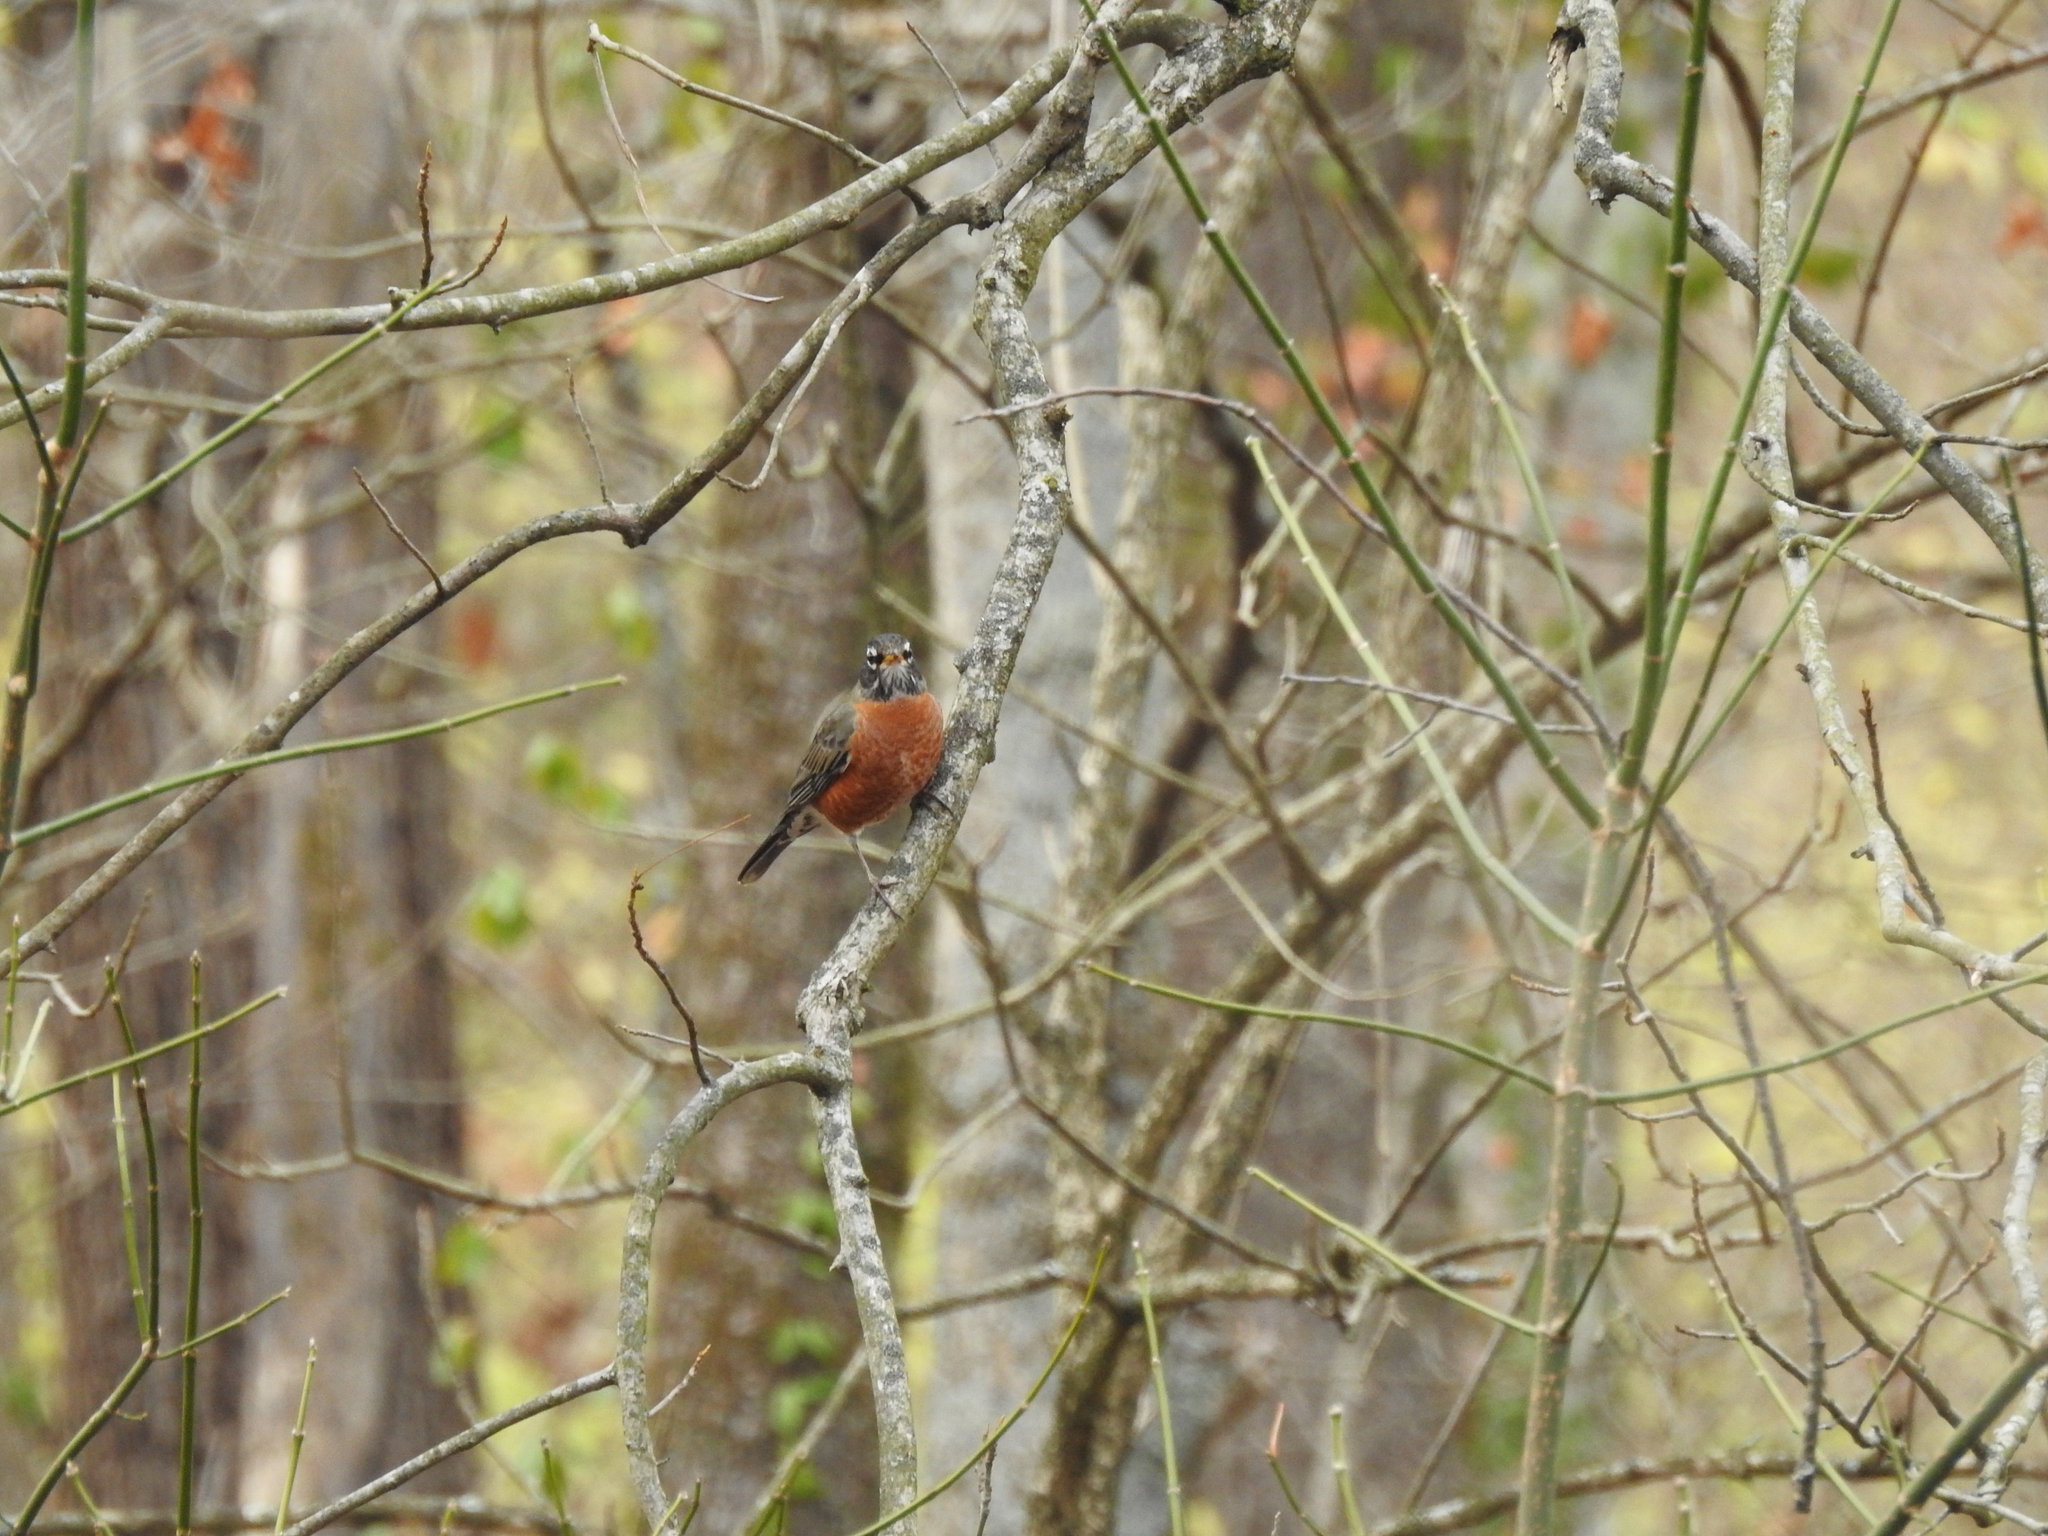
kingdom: Animalia
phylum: Chordata
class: Aves
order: Passeriformes
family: Turdidae
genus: Turdus
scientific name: Turdus migratorius
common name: American robin
